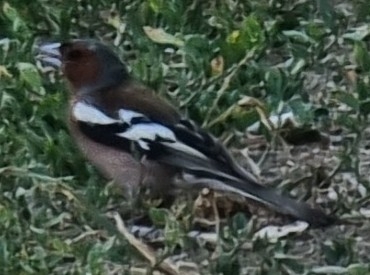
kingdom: Animalia
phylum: Chordata
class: Aves
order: Passeriformes
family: Fringillidae
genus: Fringilla
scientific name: Fringilla coelebs
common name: Common chaffinch
